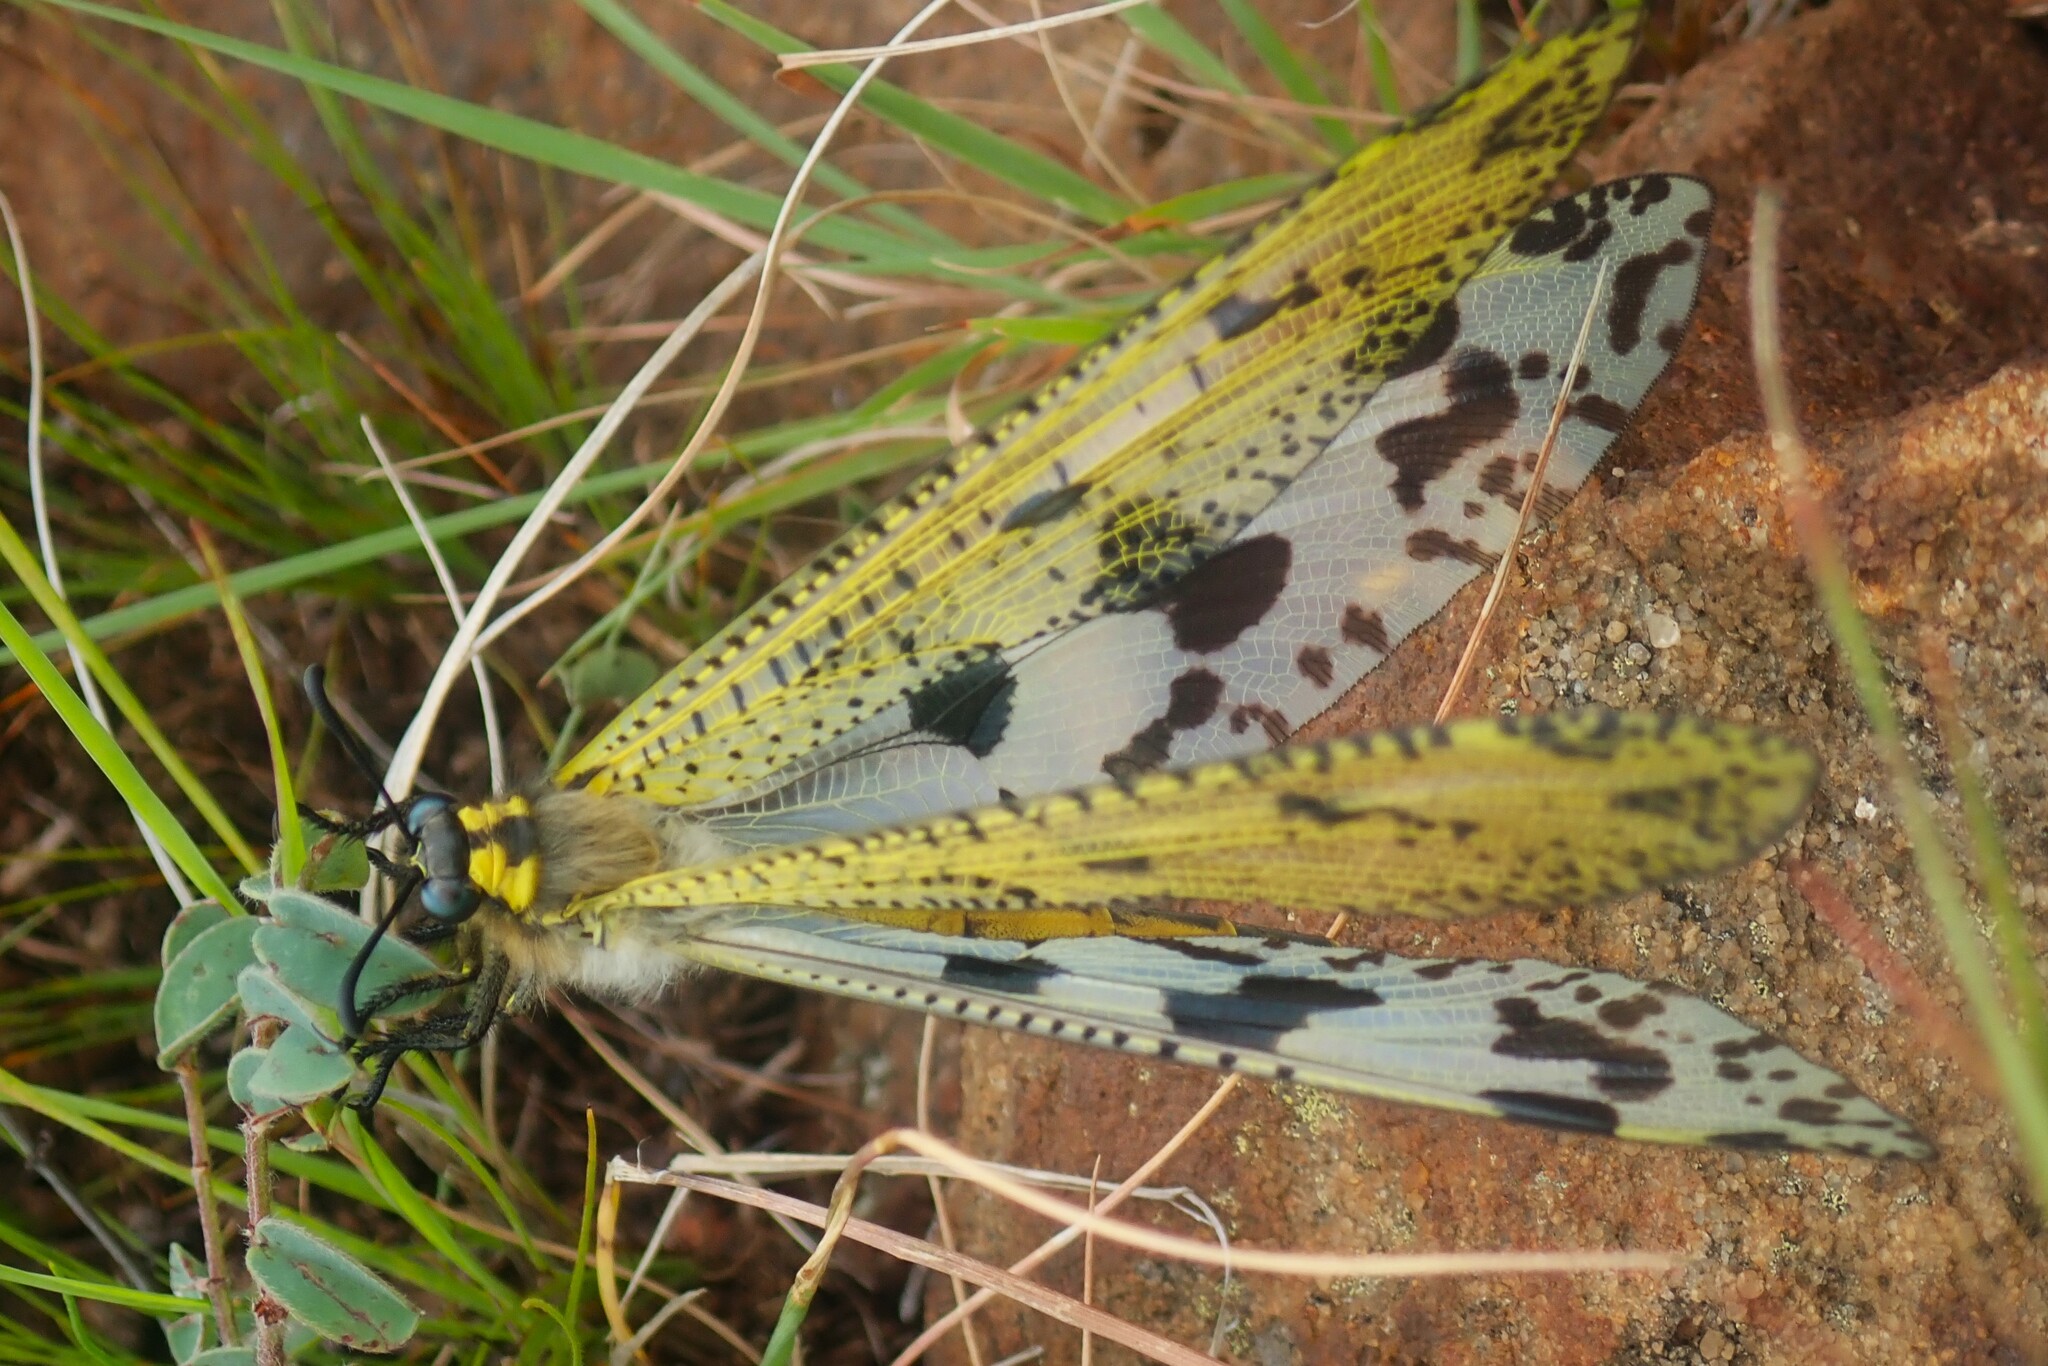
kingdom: Animalia
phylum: Arthropoda
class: Insecta
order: Neuroptera
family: Myrmeleontidae
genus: Palpares
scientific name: Palpares caffer
